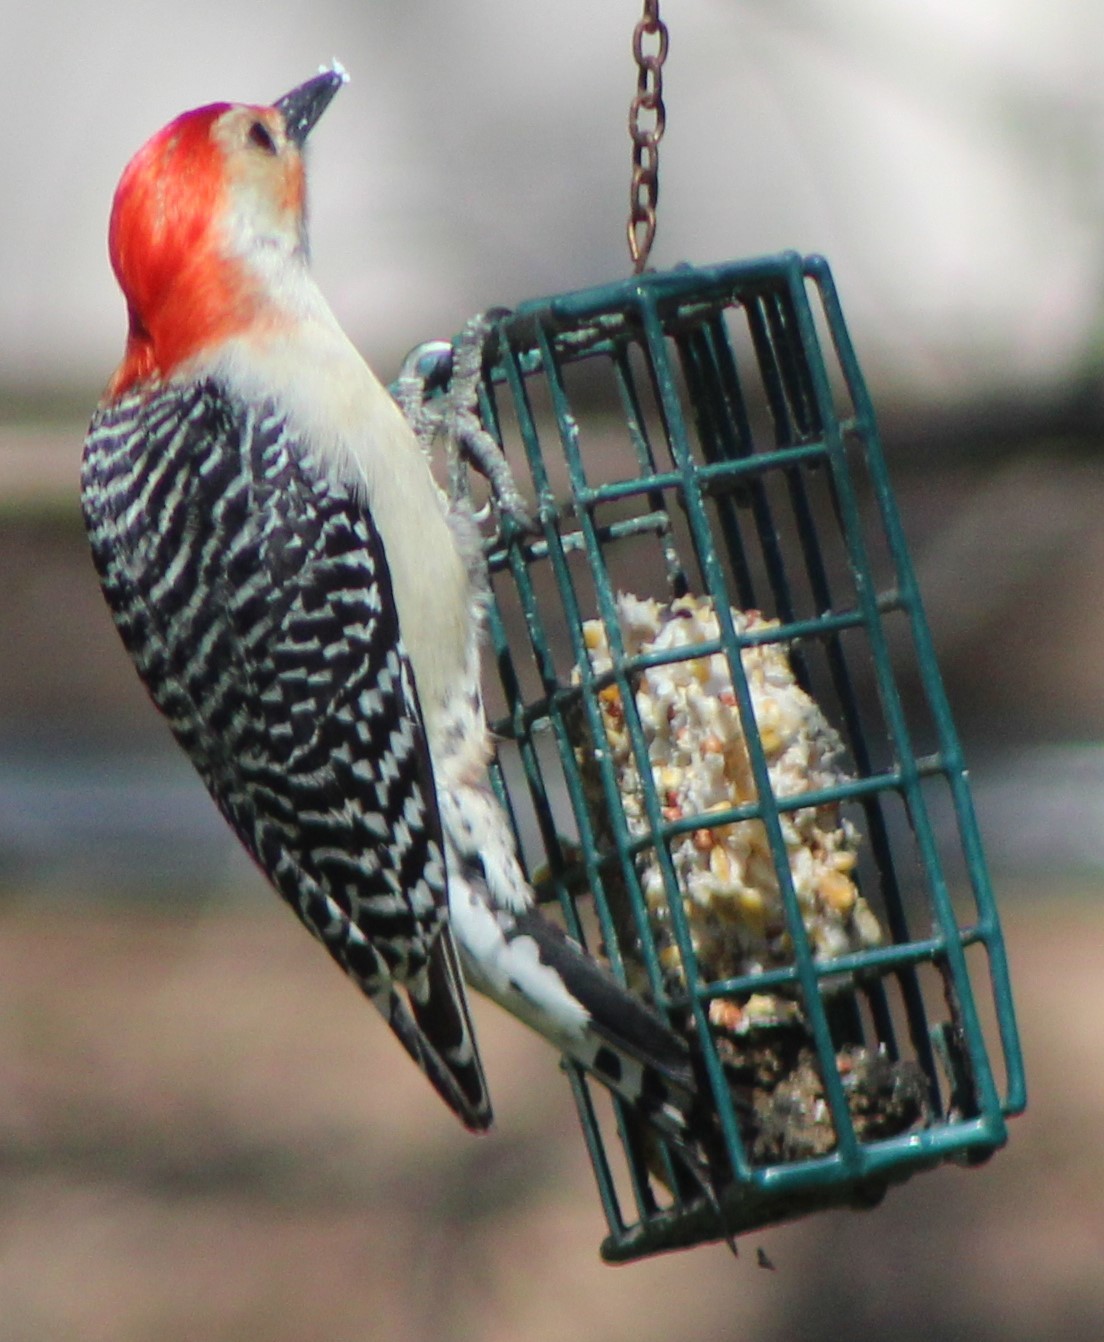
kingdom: Animalia
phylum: Chordata
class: Aves
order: Piciformes
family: Picidae
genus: Melanerpes
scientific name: Melanerpes carolinus
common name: Red-bellied woodpecker
